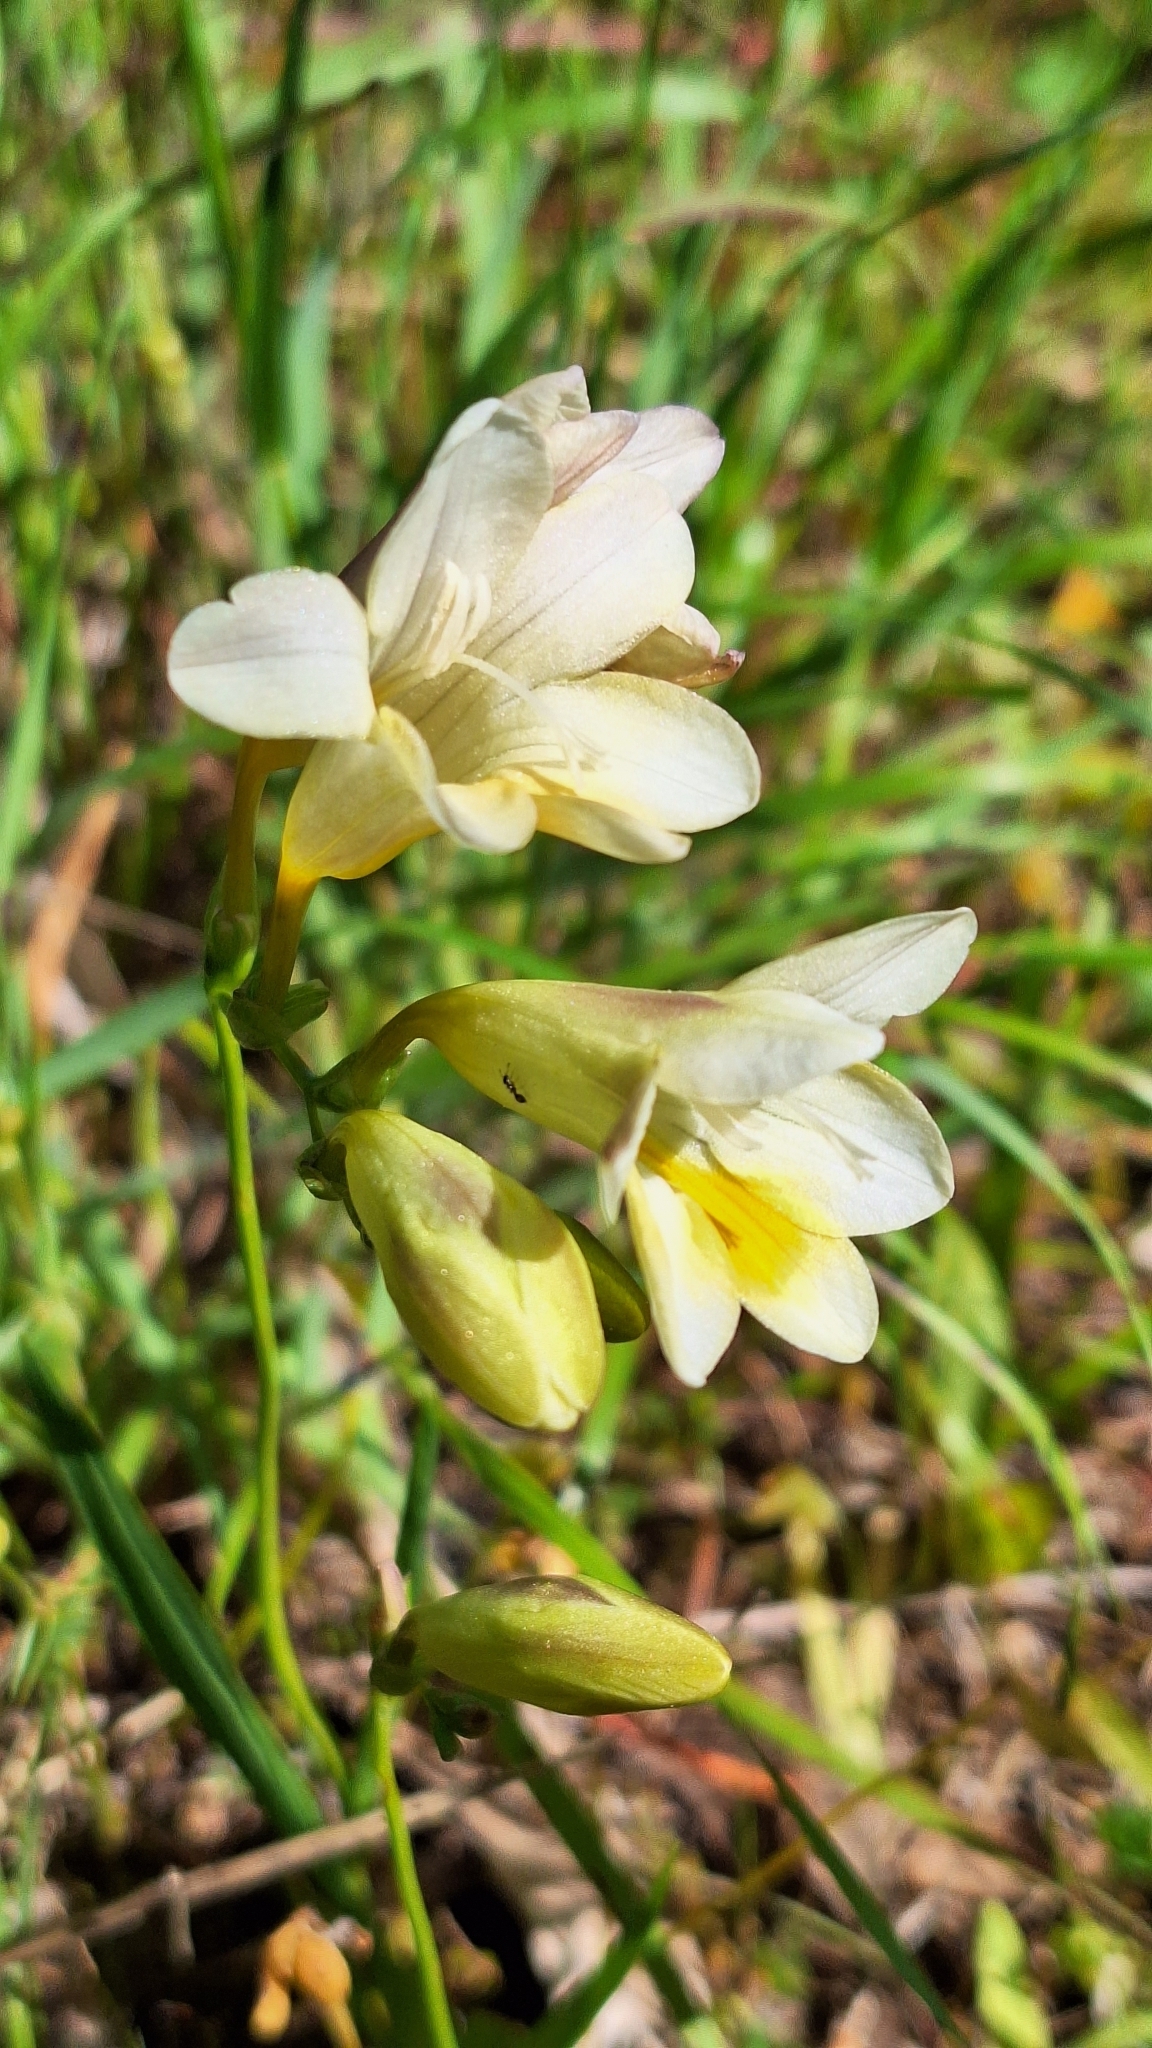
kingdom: Plantae
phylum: Tracheophyta
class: Liliopsida
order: Asparagales
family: Iridaceae
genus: Freesia
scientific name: Freesia leichtlinii
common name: Freesia
